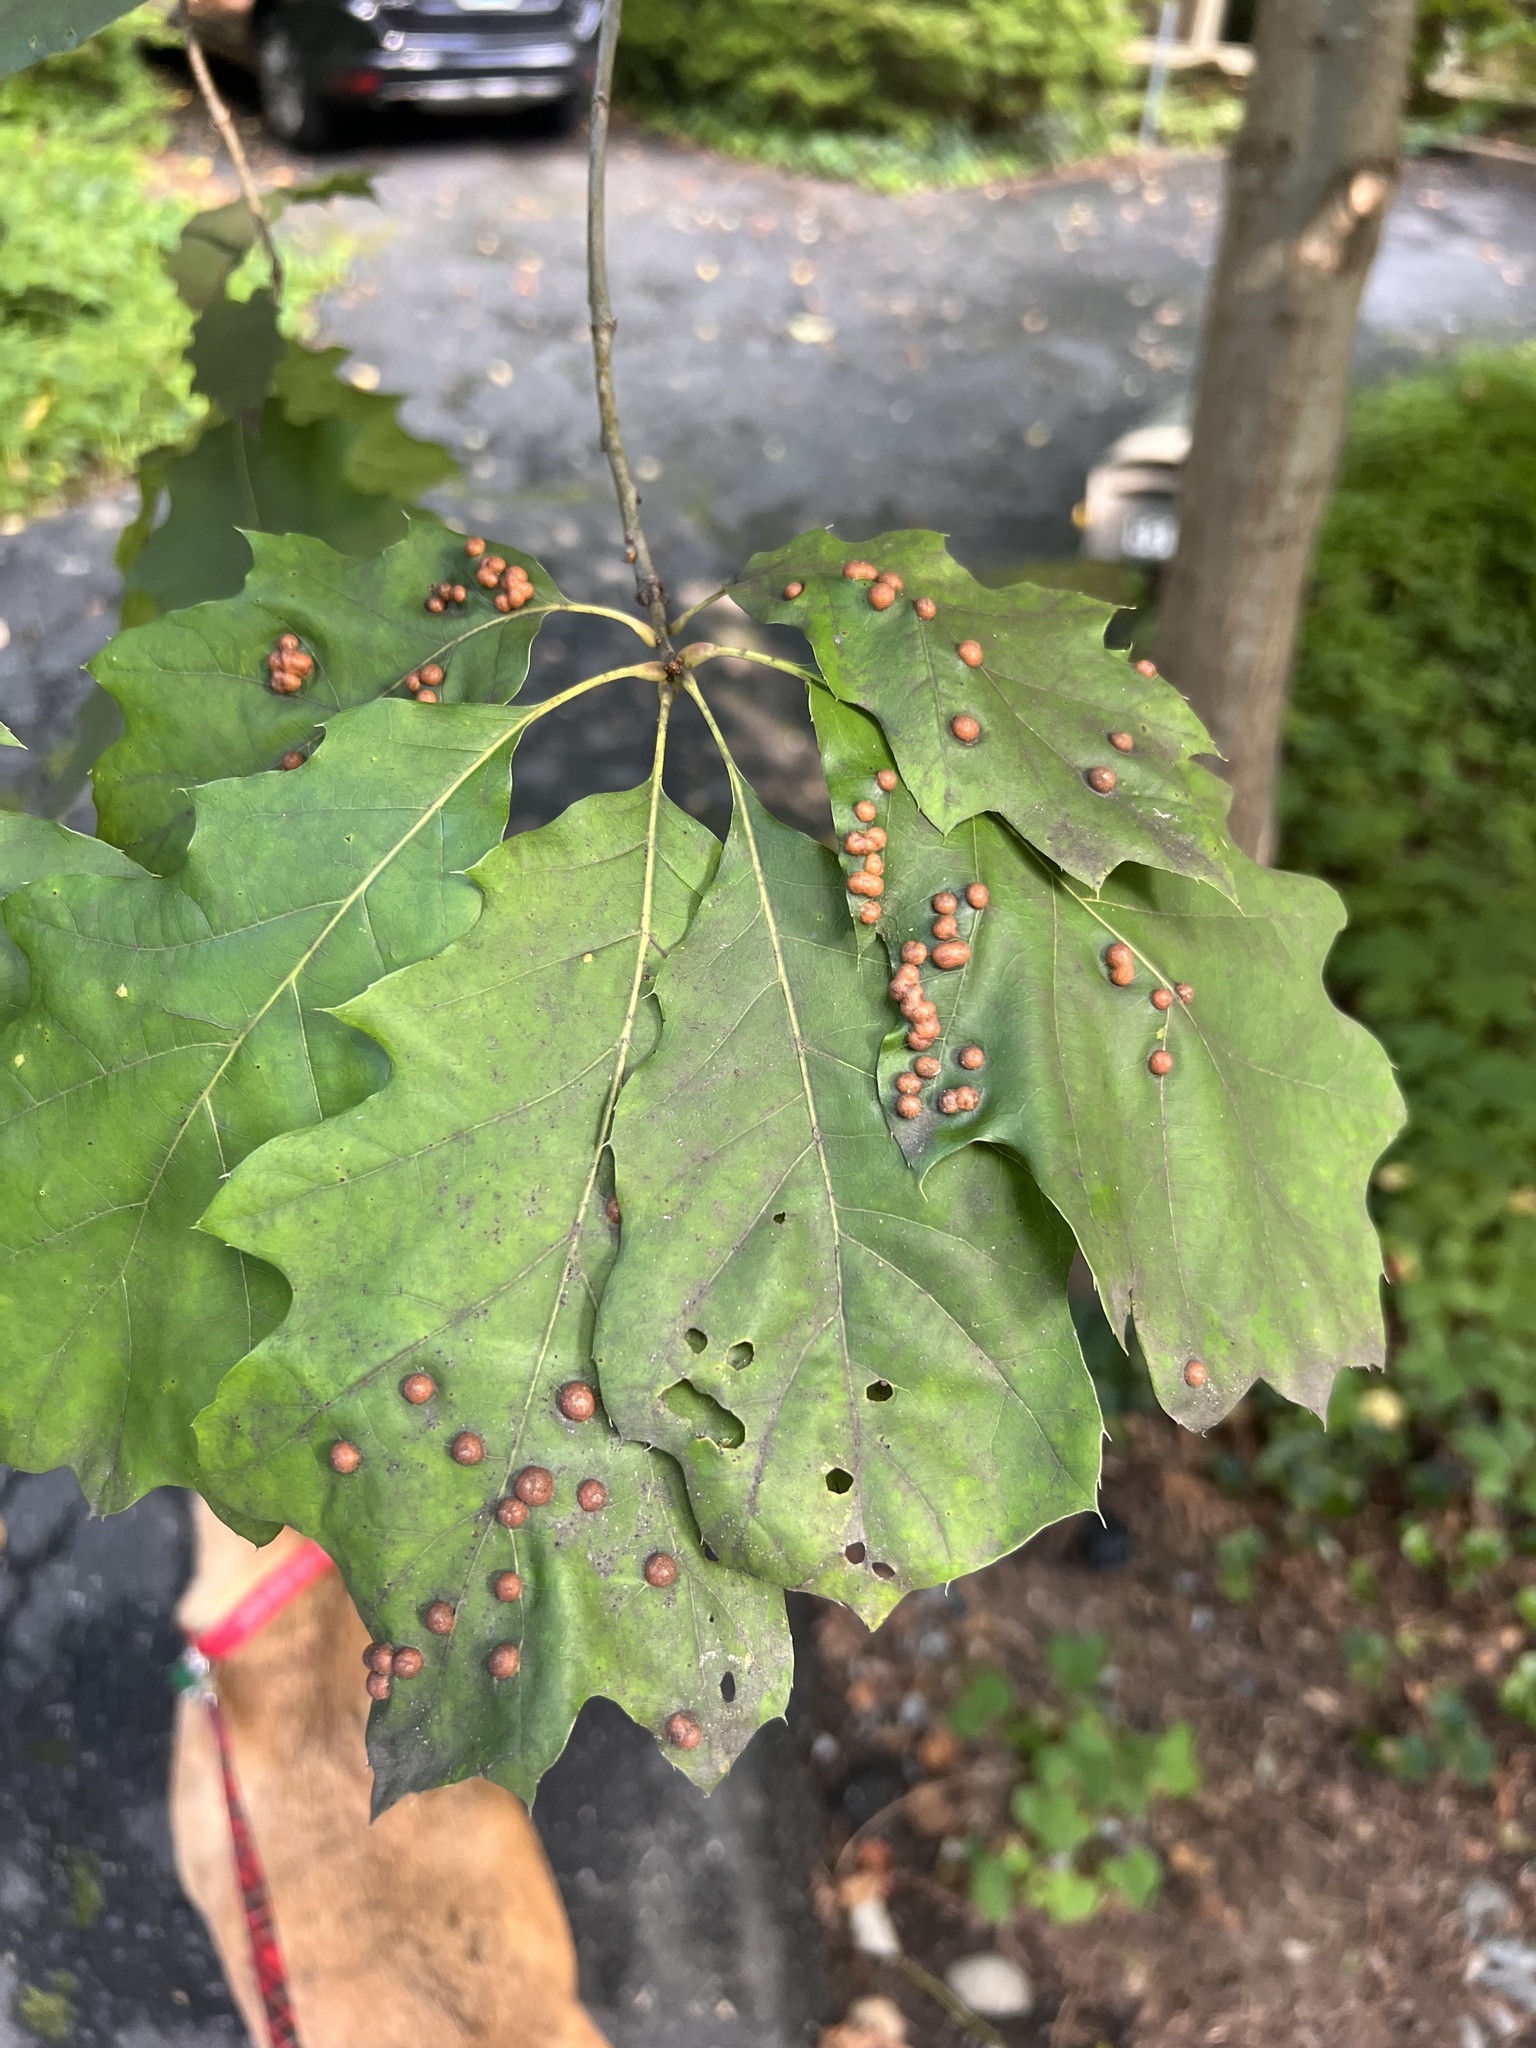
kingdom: Animalia
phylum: Arthropoda
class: Insecta
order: Diptera
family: Cecidomyiidae
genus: Polystepha
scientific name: Polystepha pilulae
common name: Oak leaf gall midge
